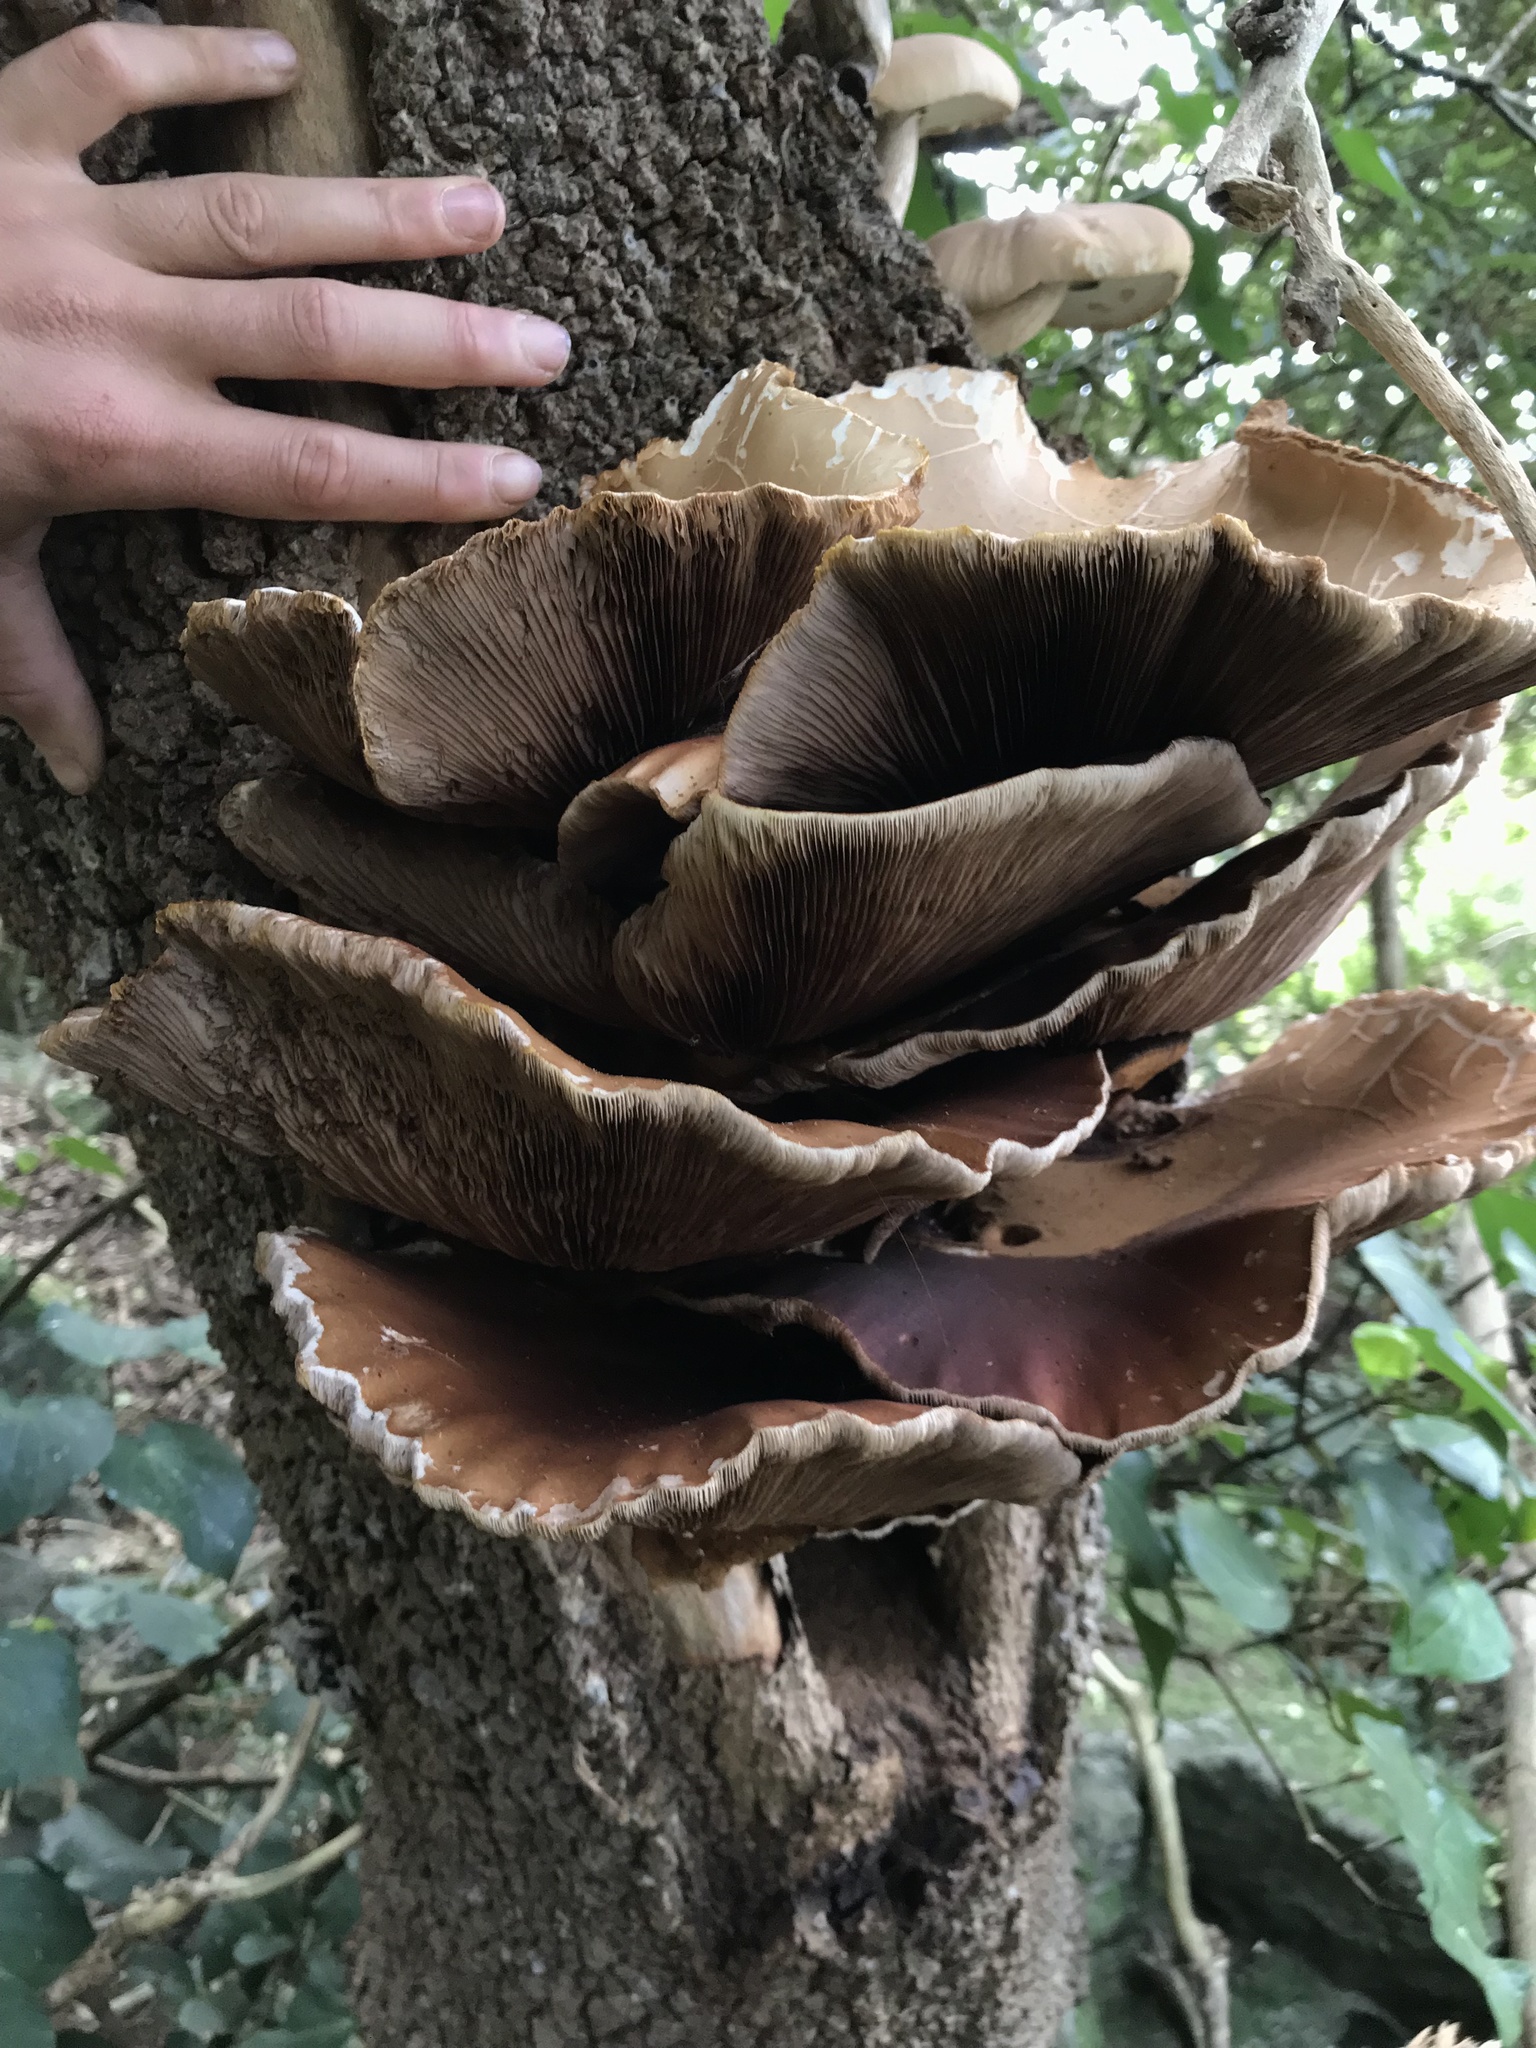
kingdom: Fungi
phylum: Basidiomycota
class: Agaricomycetes
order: Agaricales
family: Tubariaceae
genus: Cyclocybe
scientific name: Cyclocybe parasitica
